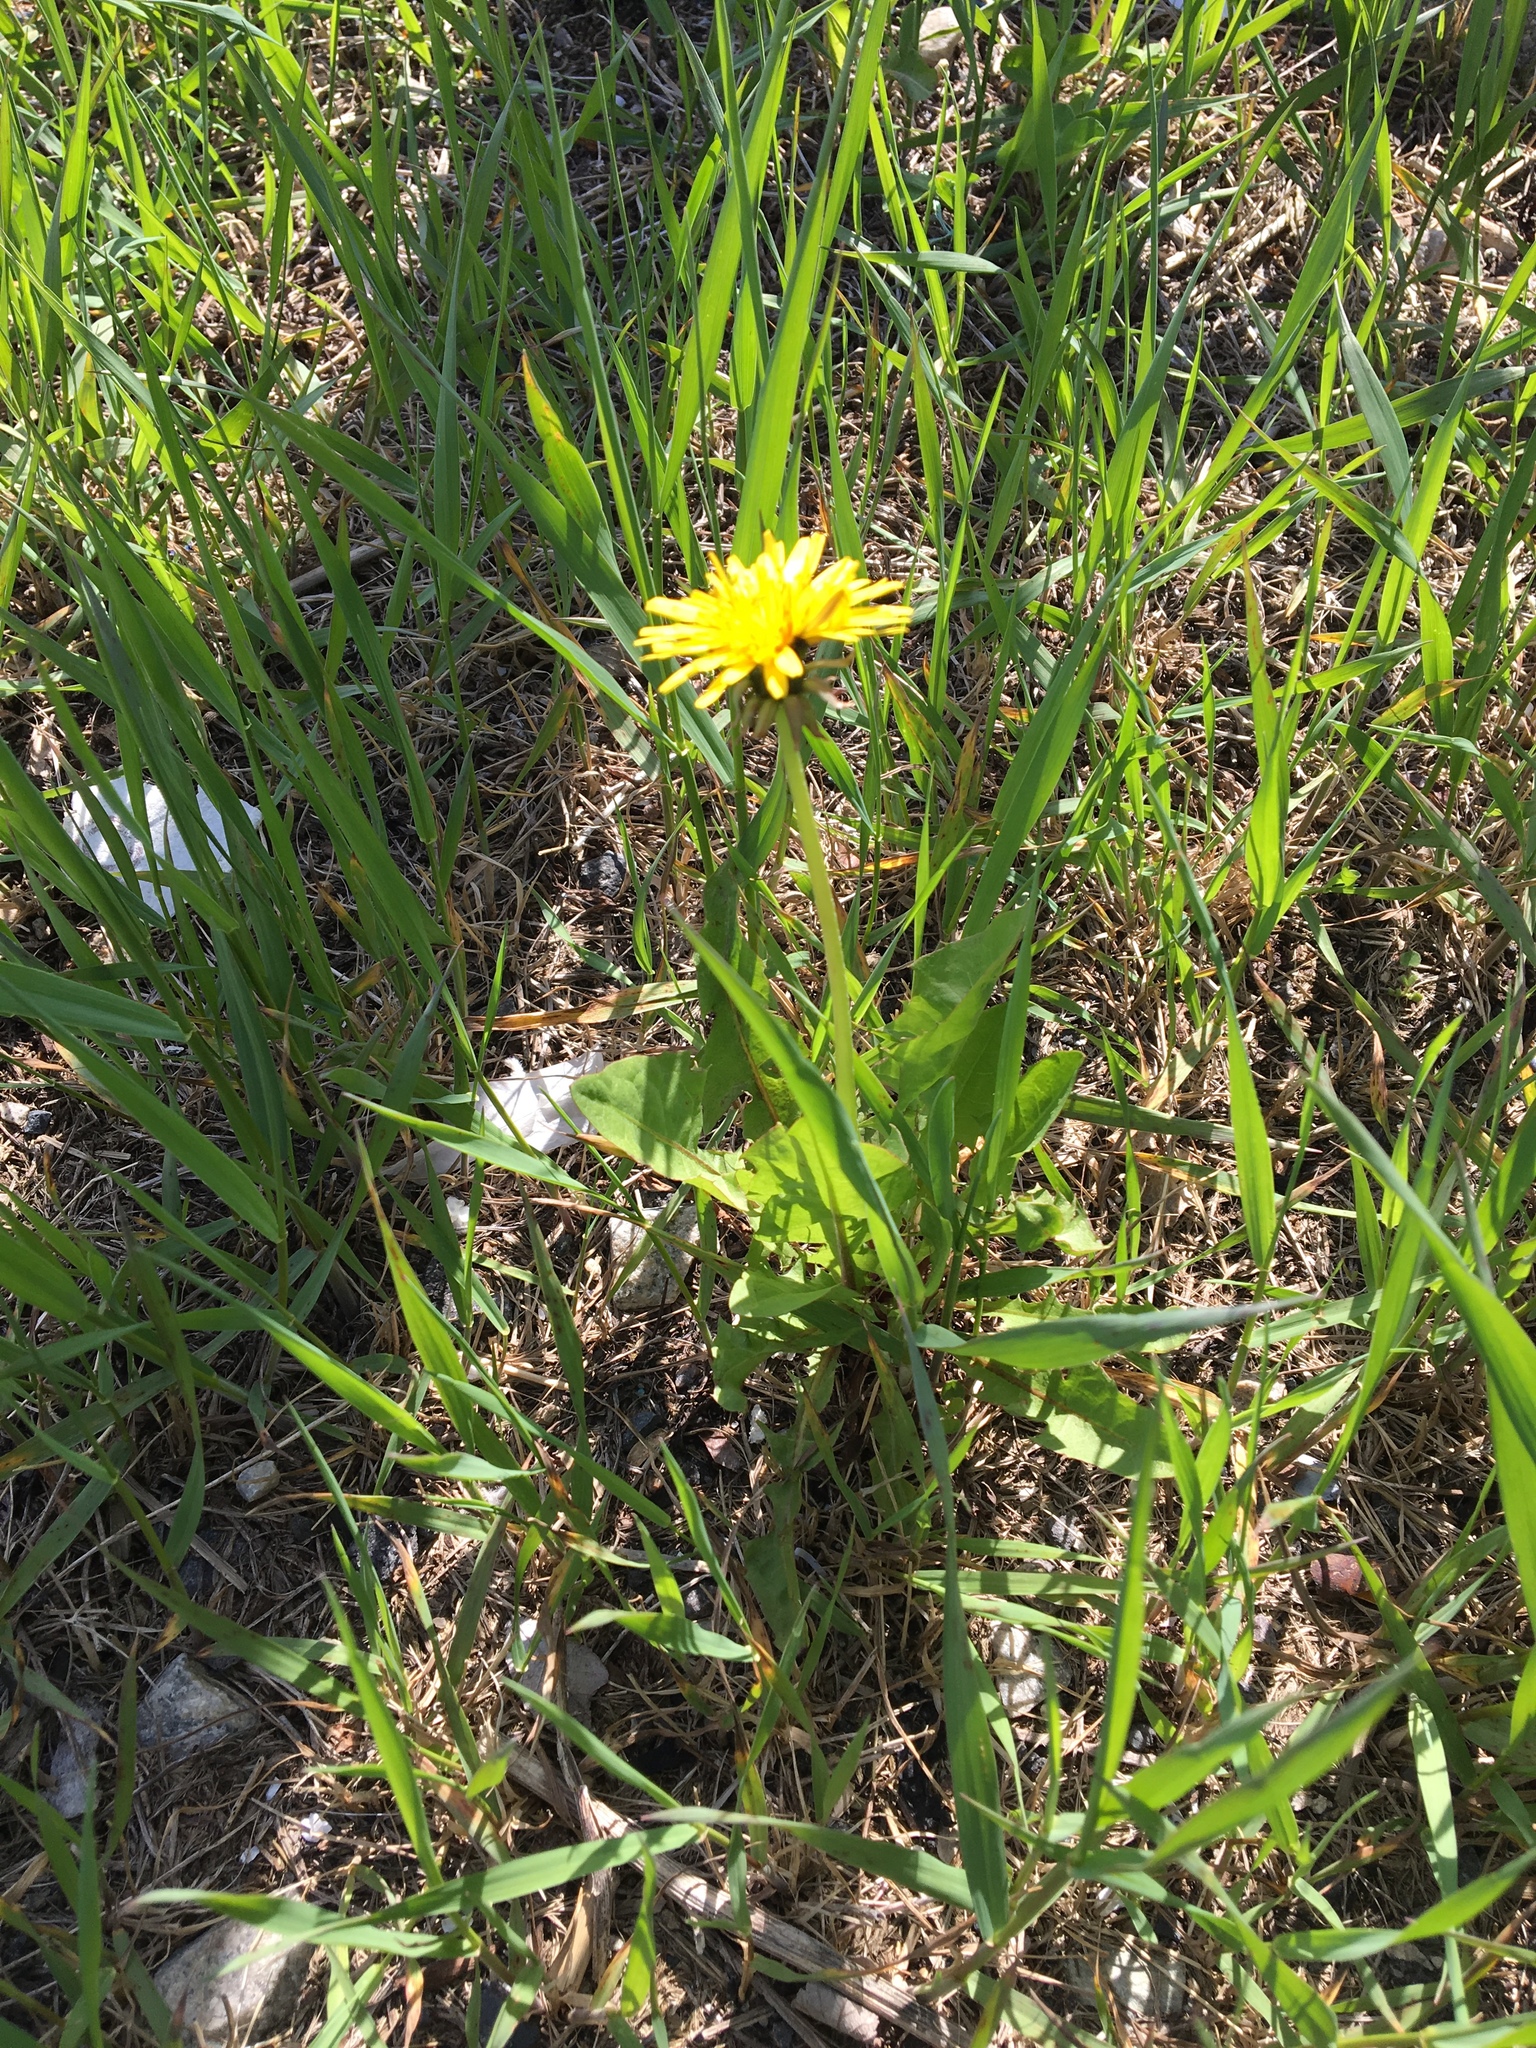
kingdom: Plantae
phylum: Tracheophyta
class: Magnoliopsida
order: Asterales
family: Asteraceae
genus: Taraxacum
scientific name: Taraxacum officinale
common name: Common dandelion
